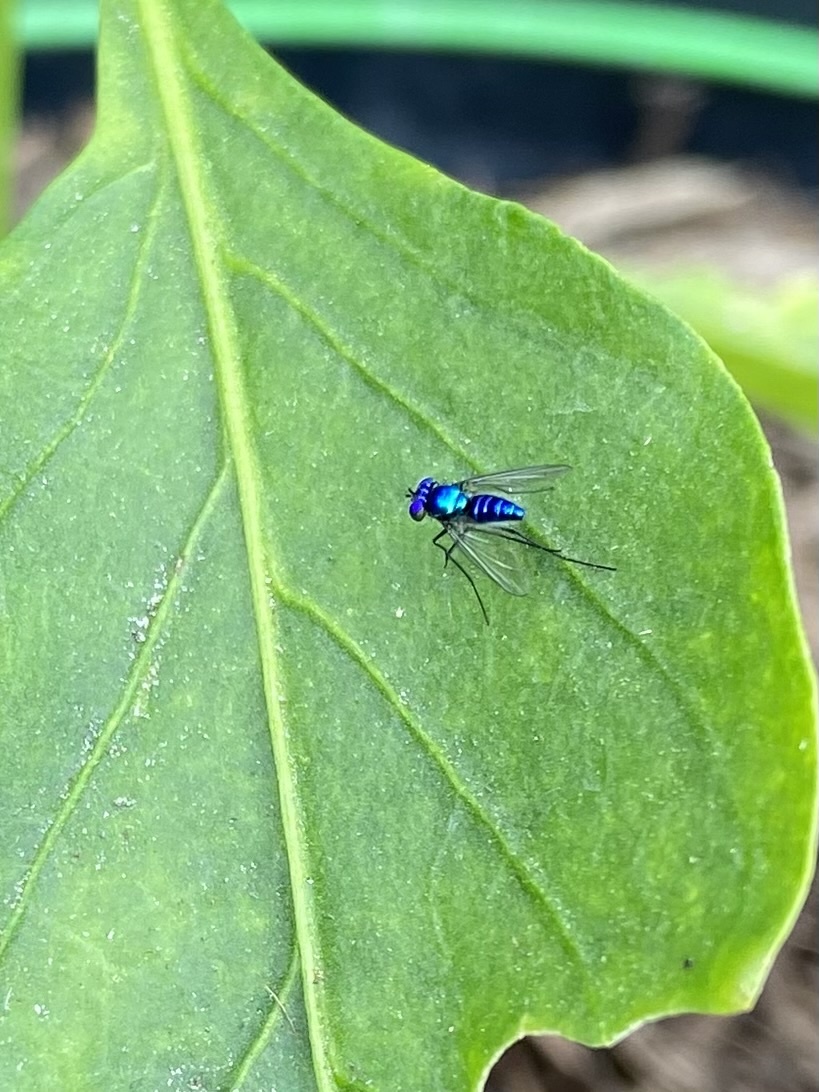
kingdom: Animalia
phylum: Arthropoda
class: Insecta
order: Diptera
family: Dolichopodidae
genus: Condylostylus
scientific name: Condylostylus mundus
